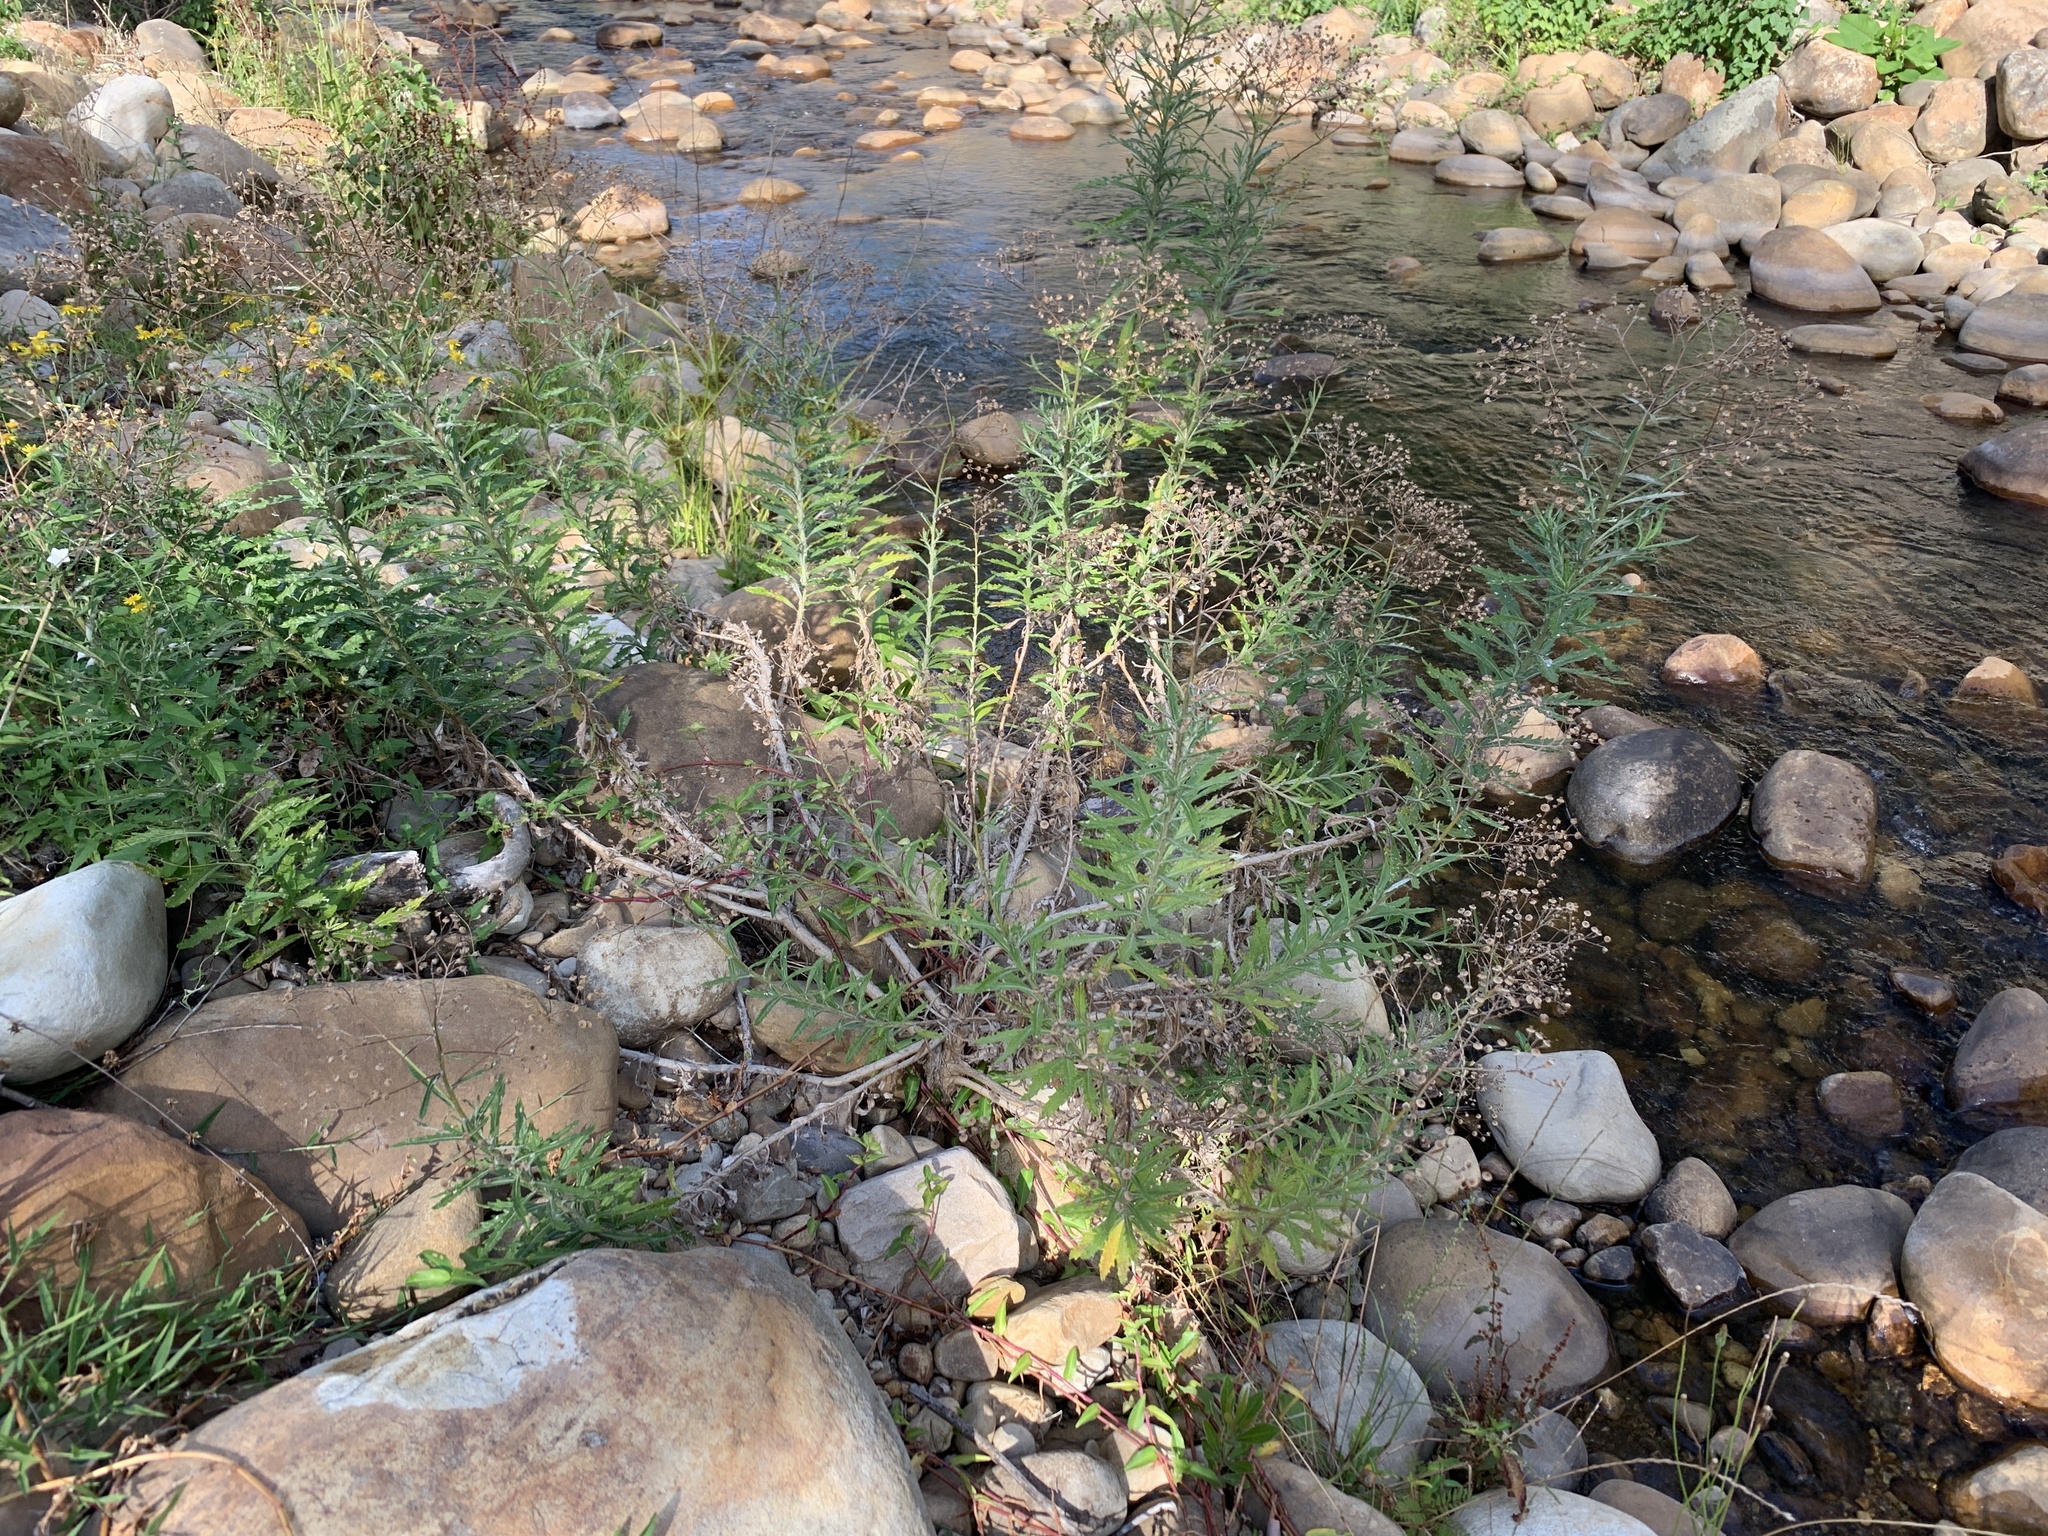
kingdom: Plantae
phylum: Tracheophyta
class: Magnoliopsida
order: Asterales
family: Asteraceae
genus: Senecio
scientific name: Senecio pterophorus
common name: Shoddy ragwort
